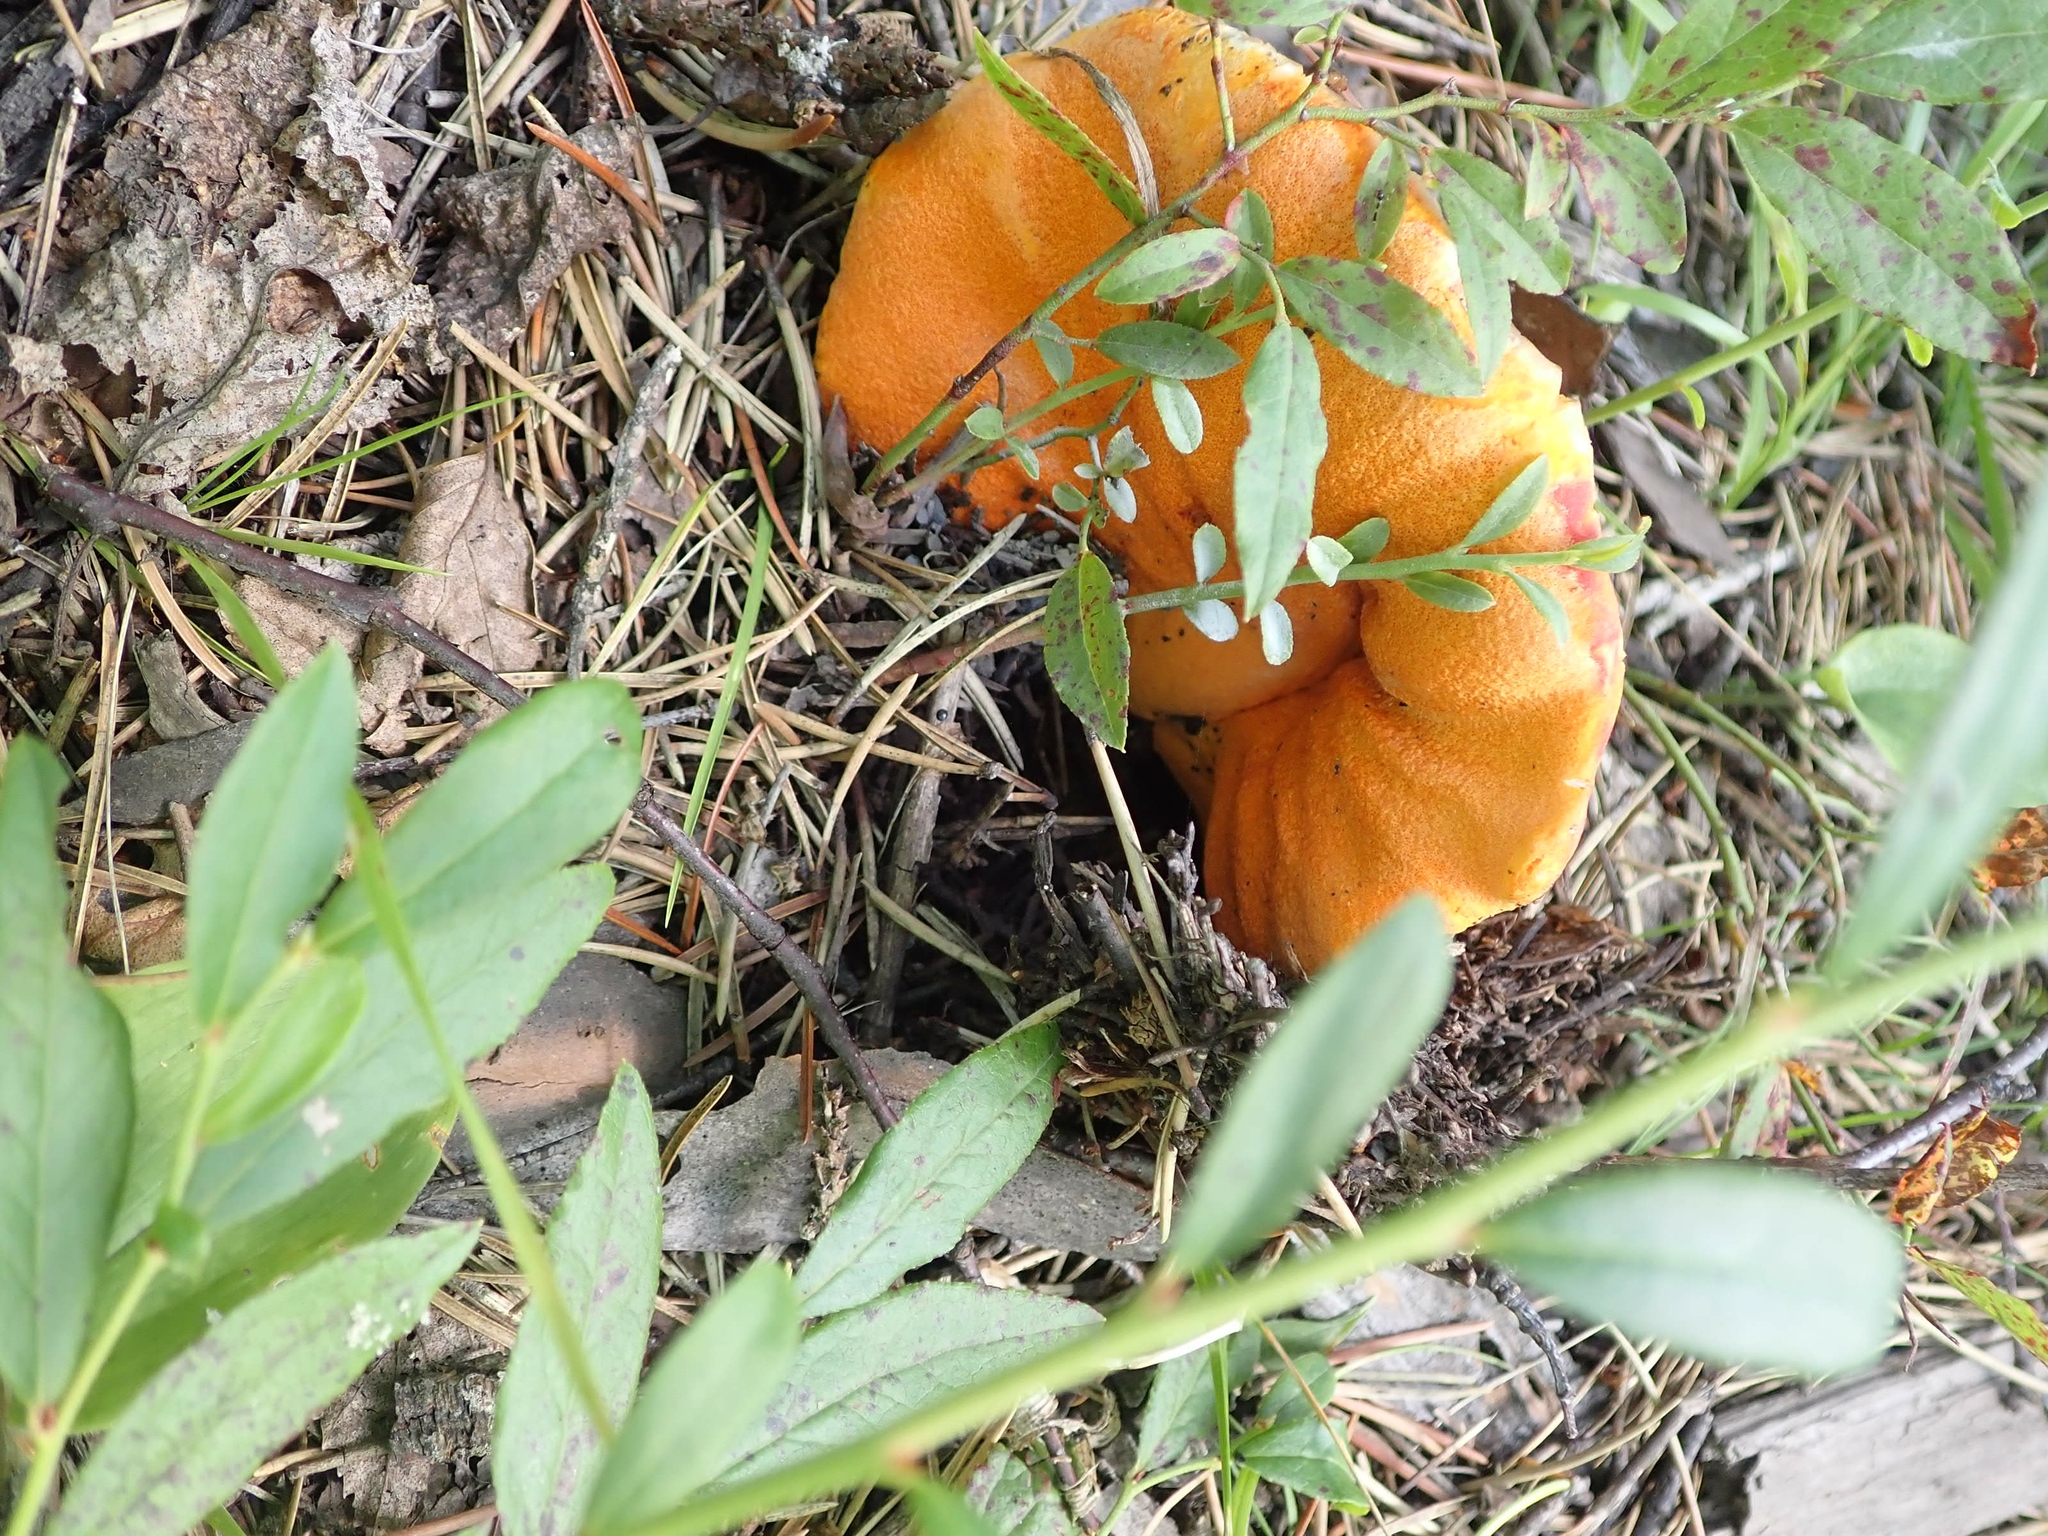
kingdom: Fungi
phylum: Ascomycota
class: Sordariomycetes
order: Hypocreales
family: Hypocreaceae
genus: Hypomyces
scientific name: Hypomyces lactifluorum
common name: Lobster mushroom
